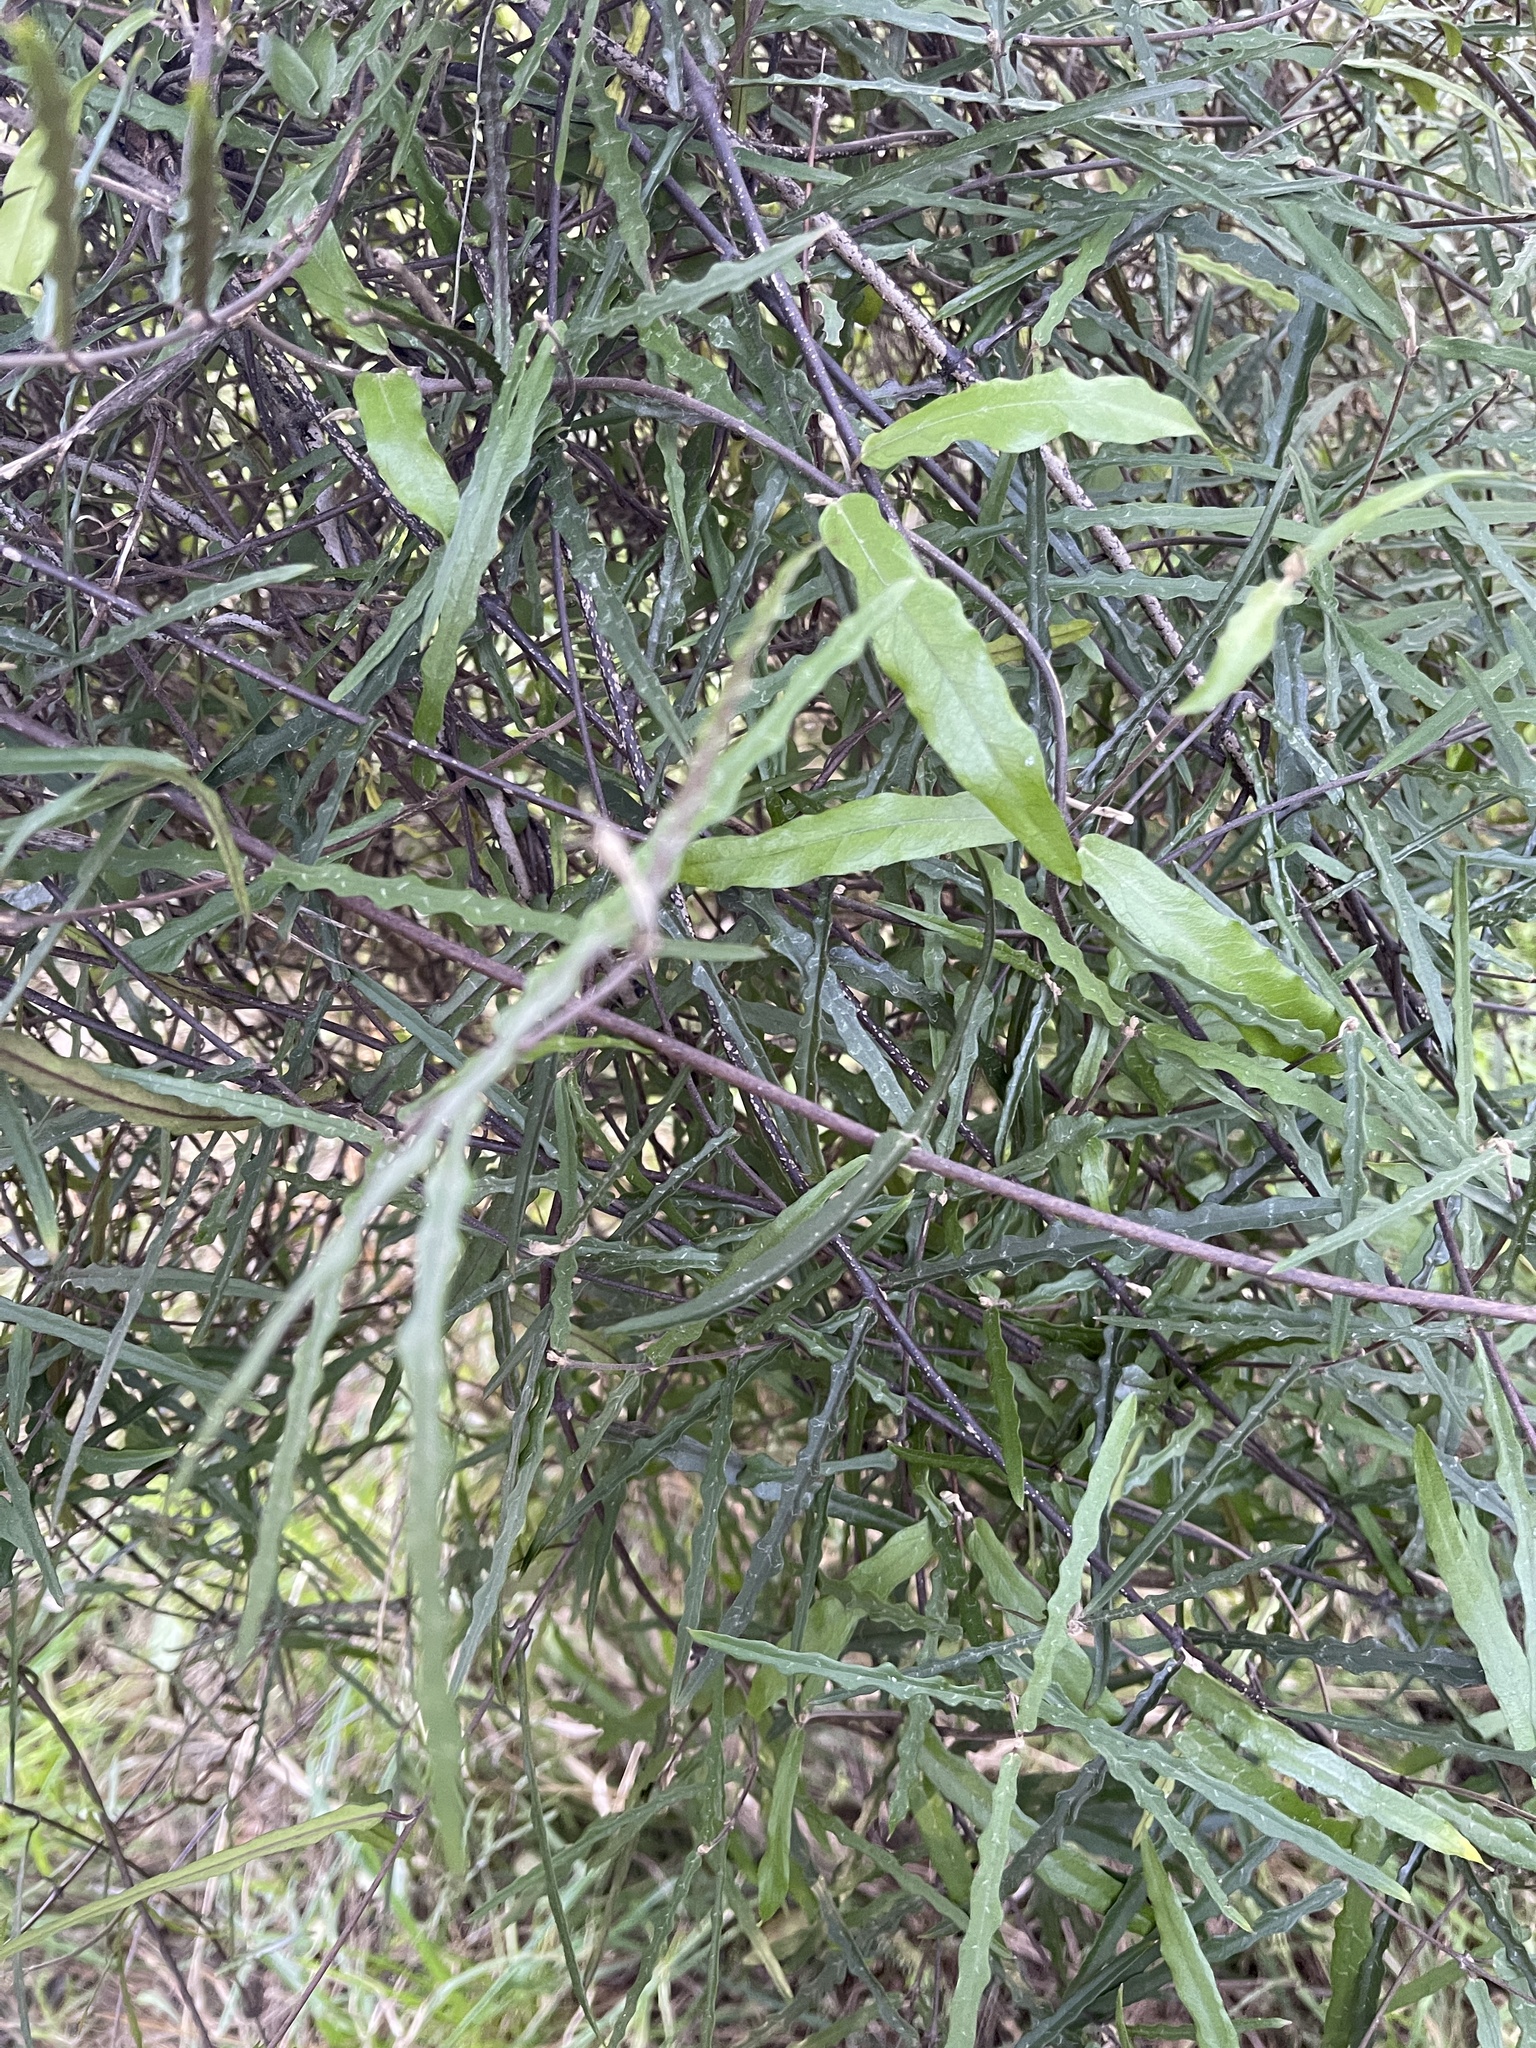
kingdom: Plantae
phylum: Tracheophyta
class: Magnoliopsida
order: Gentianales
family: Apocynaceae
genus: Parsonsia
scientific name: Parsonsia capsularis
